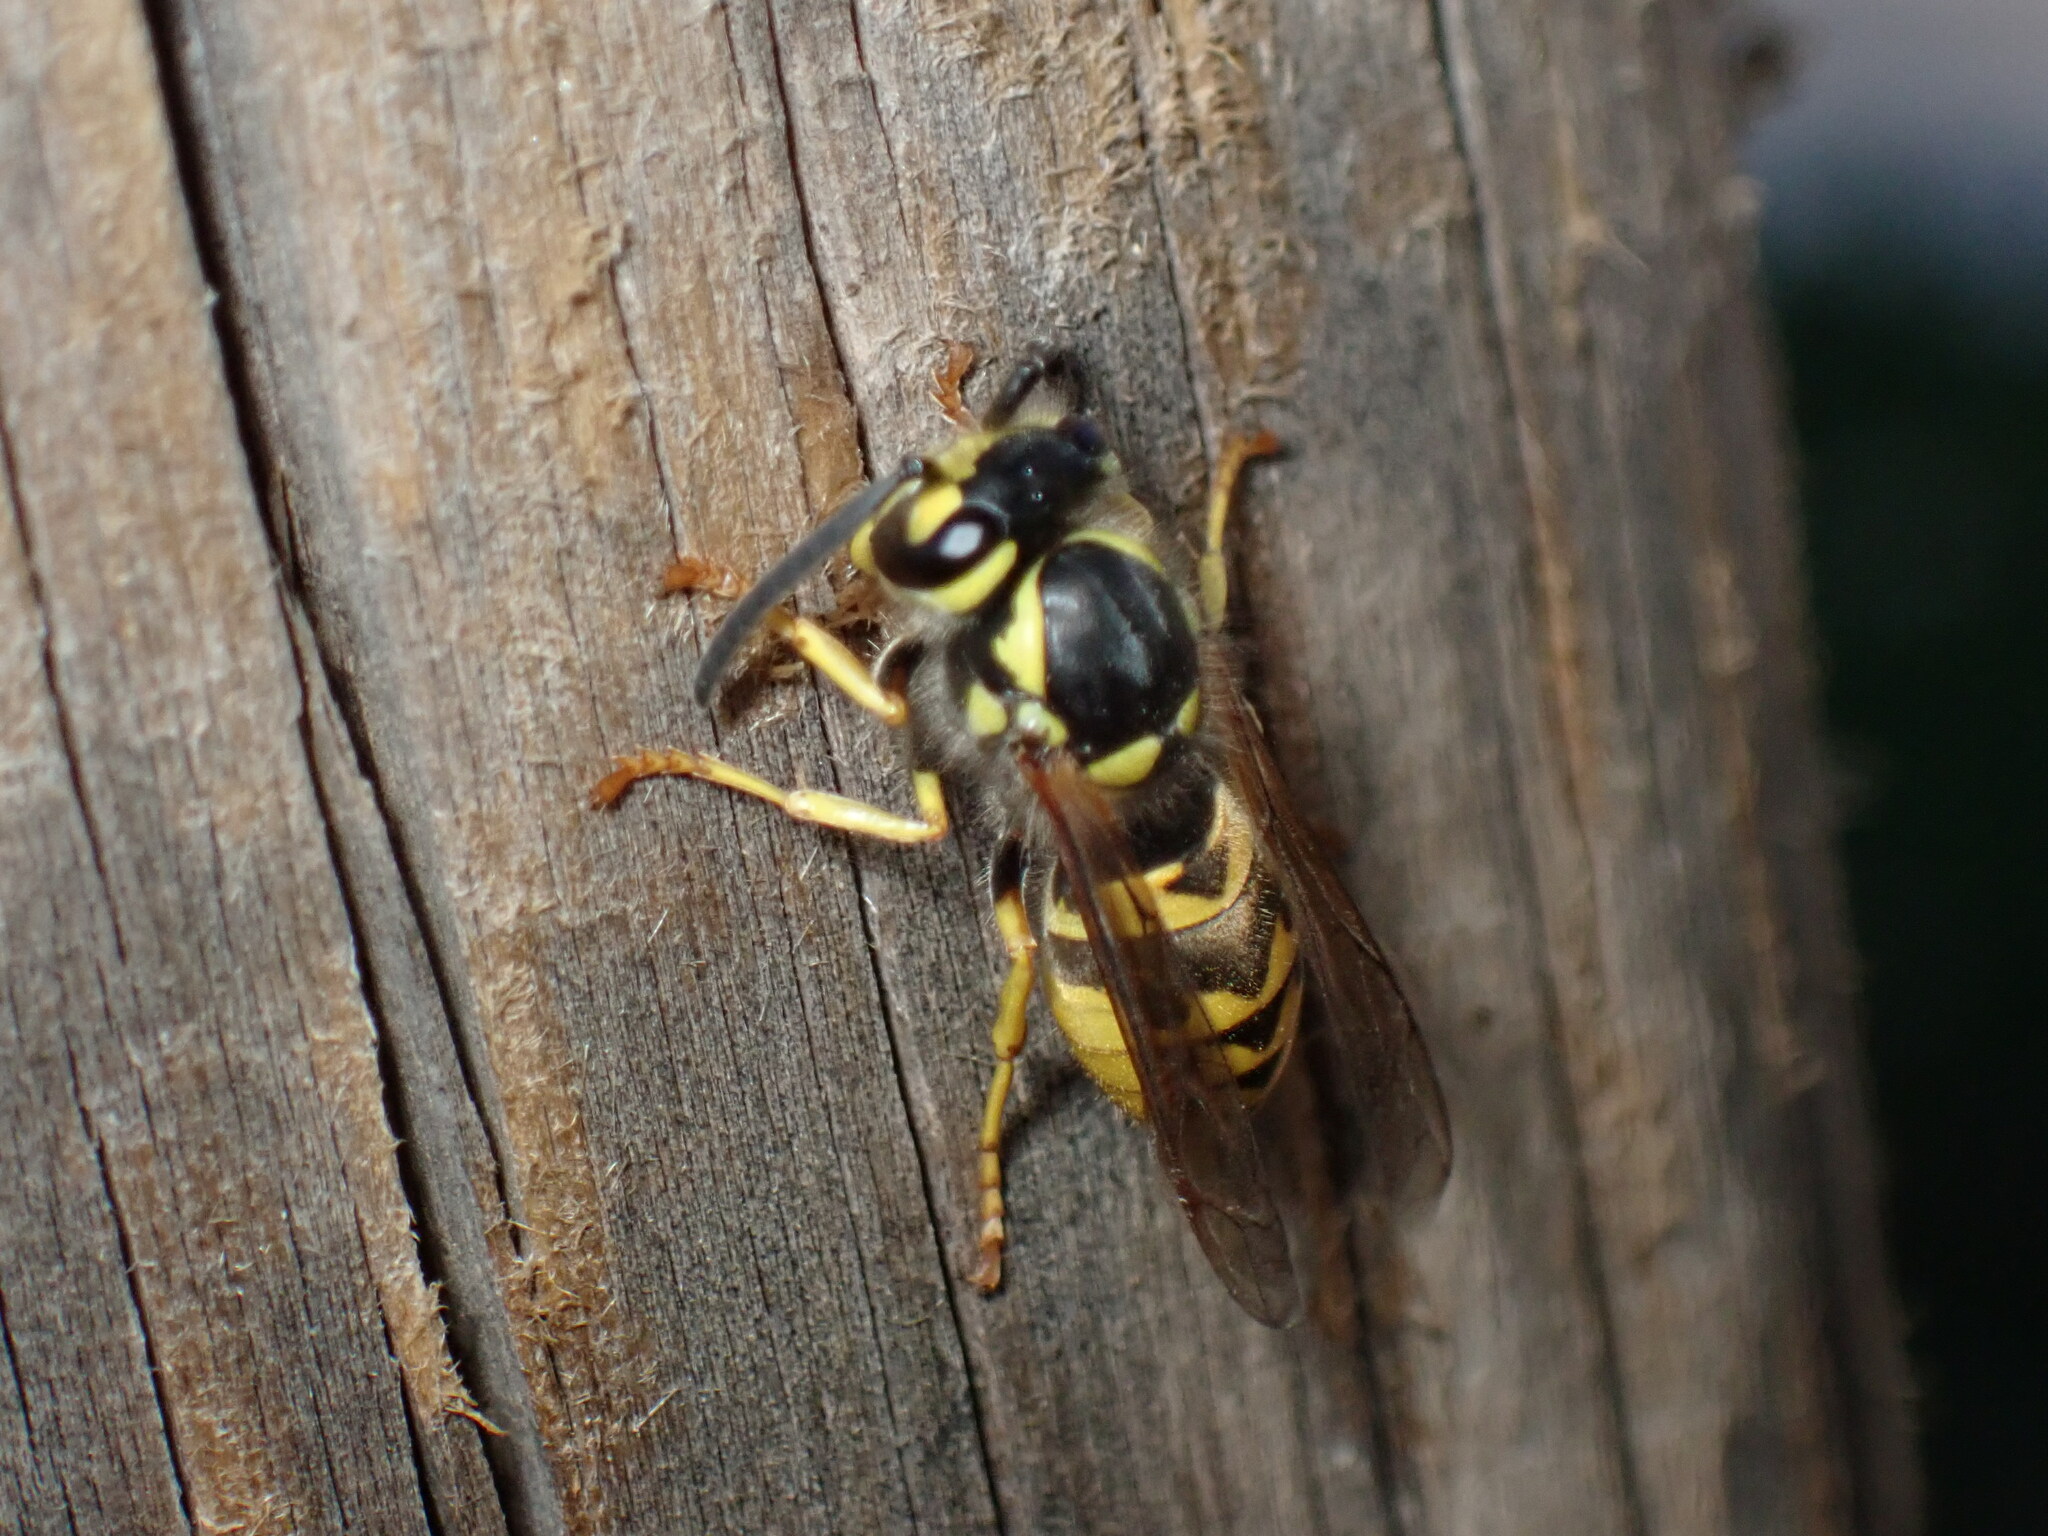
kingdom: Animalia
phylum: Arthropoda
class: Insecta
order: Hymenoptera
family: Vespidae
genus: Vespula
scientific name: Vespula germanica
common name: German wasp
